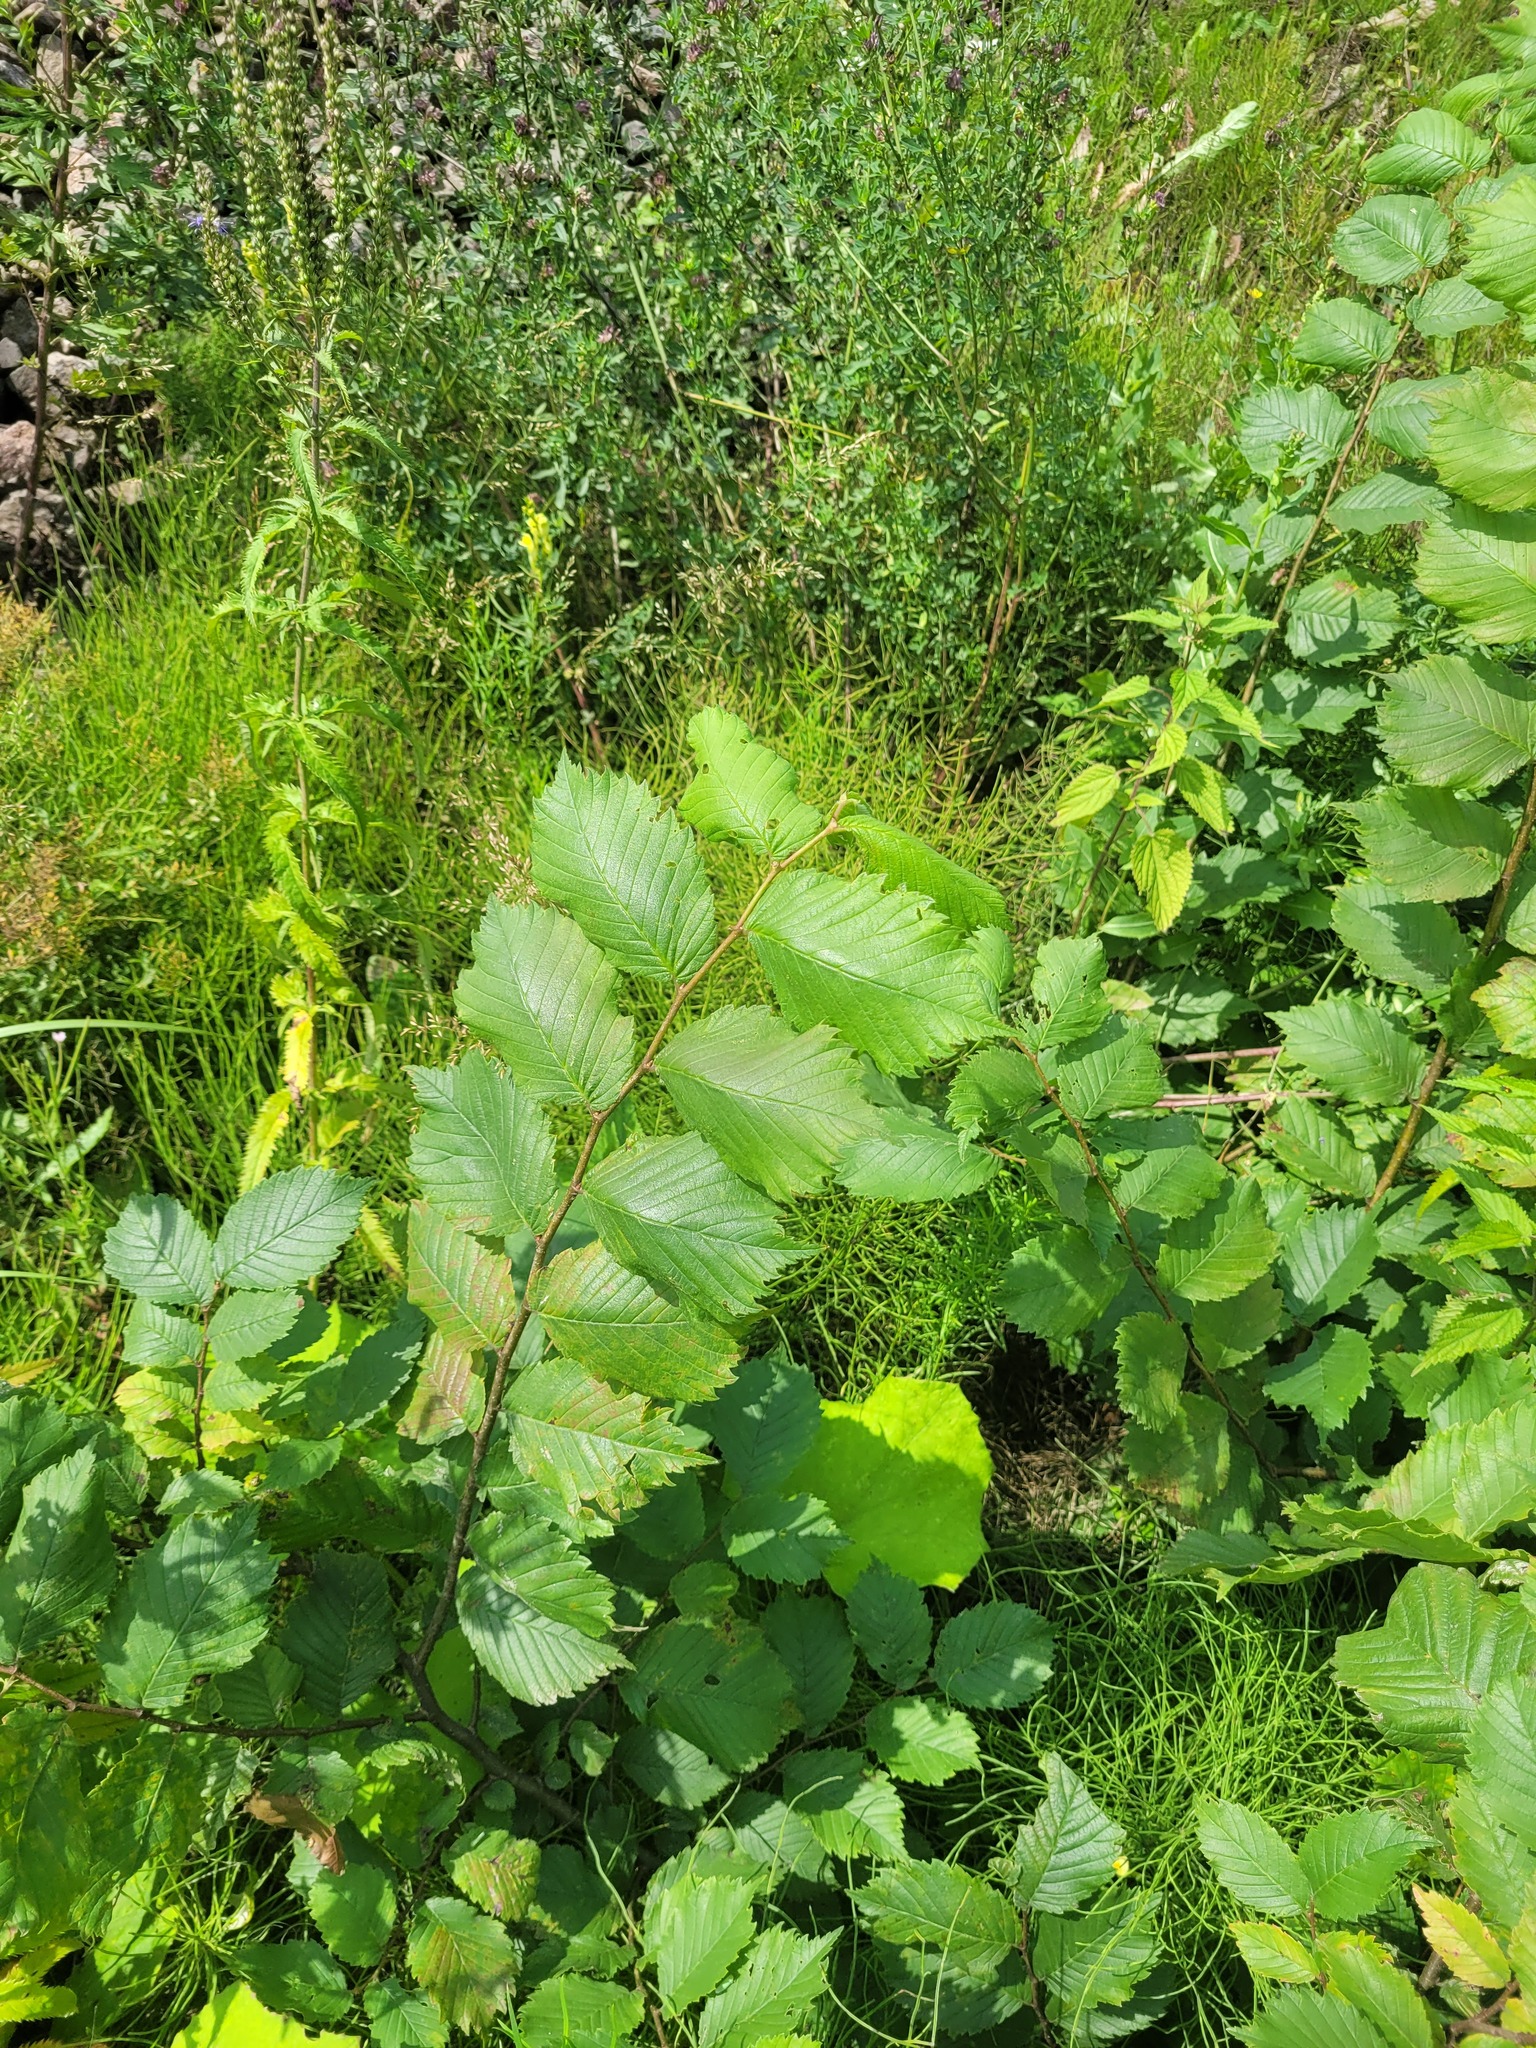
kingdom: Plantae
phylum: Tracheophyta
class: Magnoliopsida
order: Rosales
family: Ulmaceae
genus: Ulmus
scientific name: Ulmus laevis
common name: European white-elm
